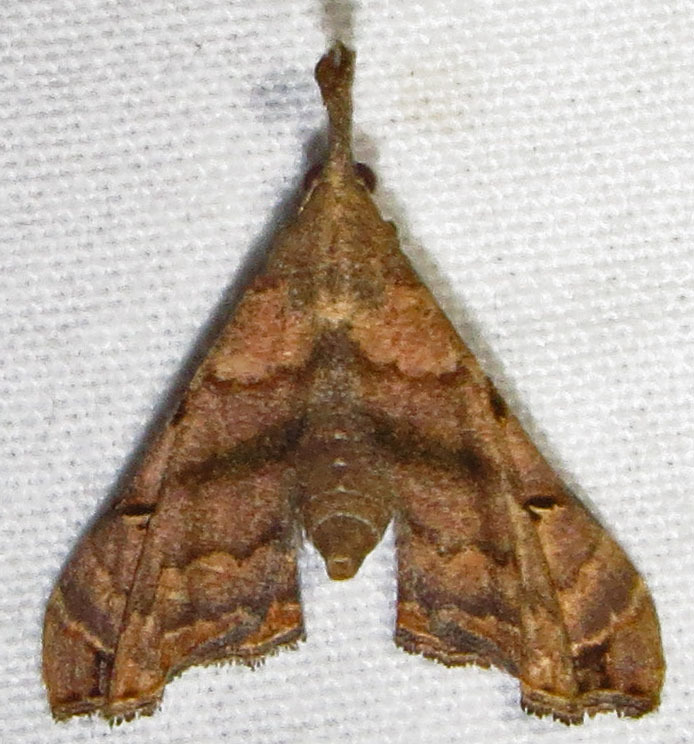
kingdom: Animalia
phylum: Arthropoda
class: Insecta
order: Lepidoptera
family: Erebidae
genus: Palthis
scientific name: Palthis asopialis
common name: Faint-spotted palthis moth
